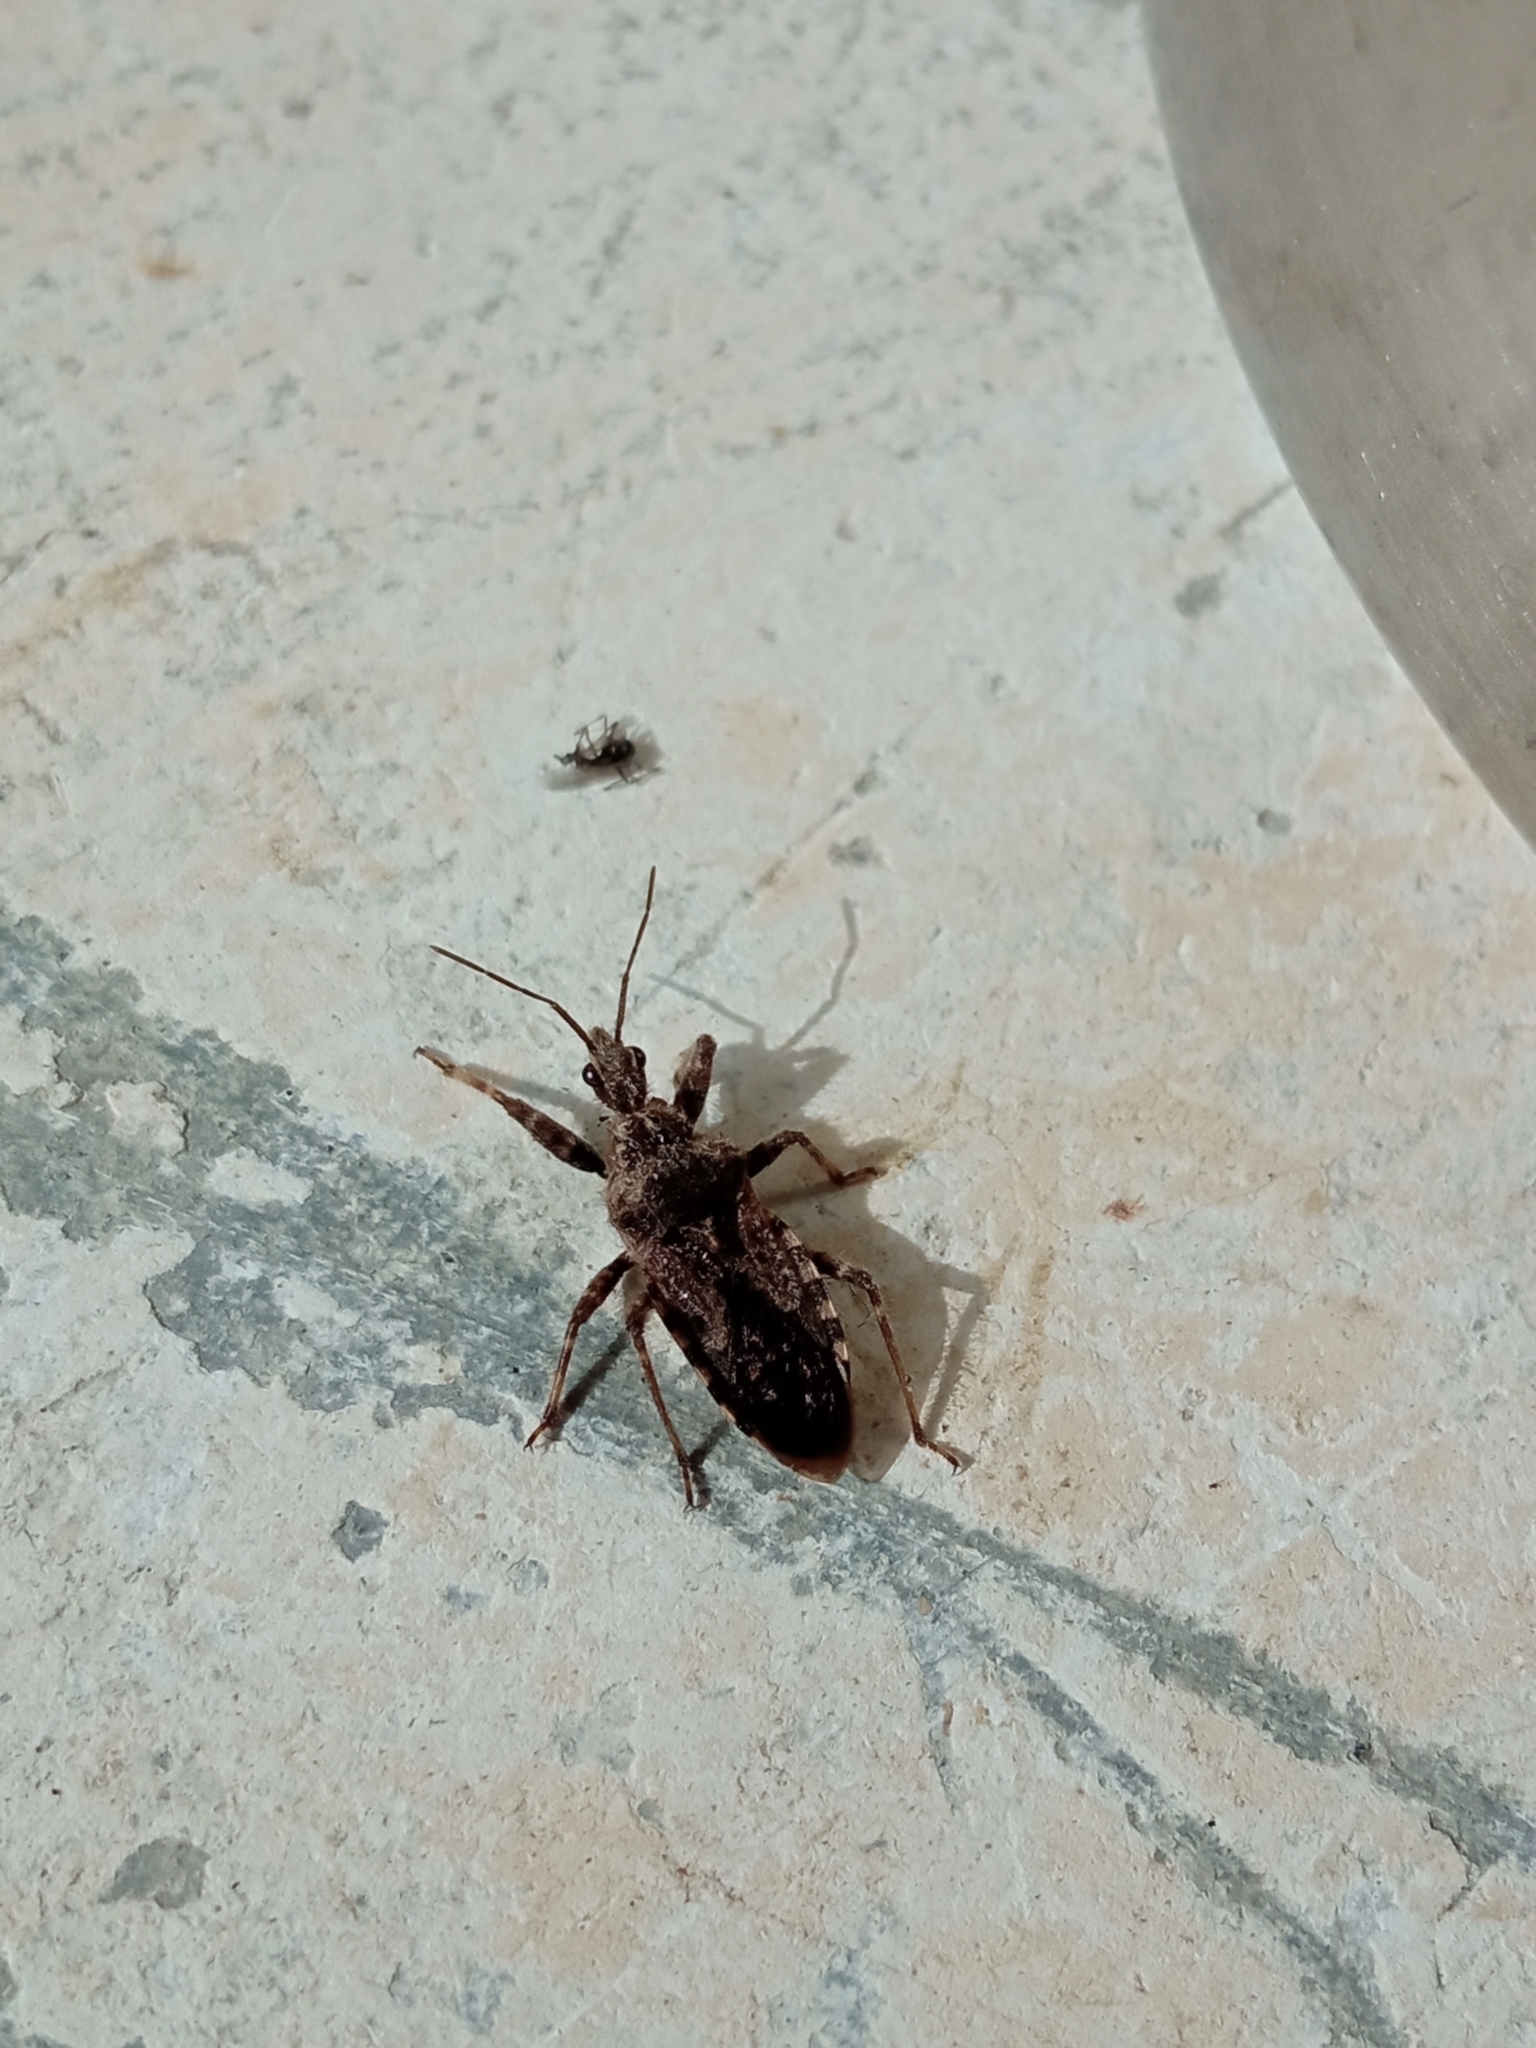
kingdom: Animalia
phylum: Arthropoda
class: Insecta
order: Hemiptera
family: Reduviidae
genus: Coranus
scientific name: Coranus griseus
